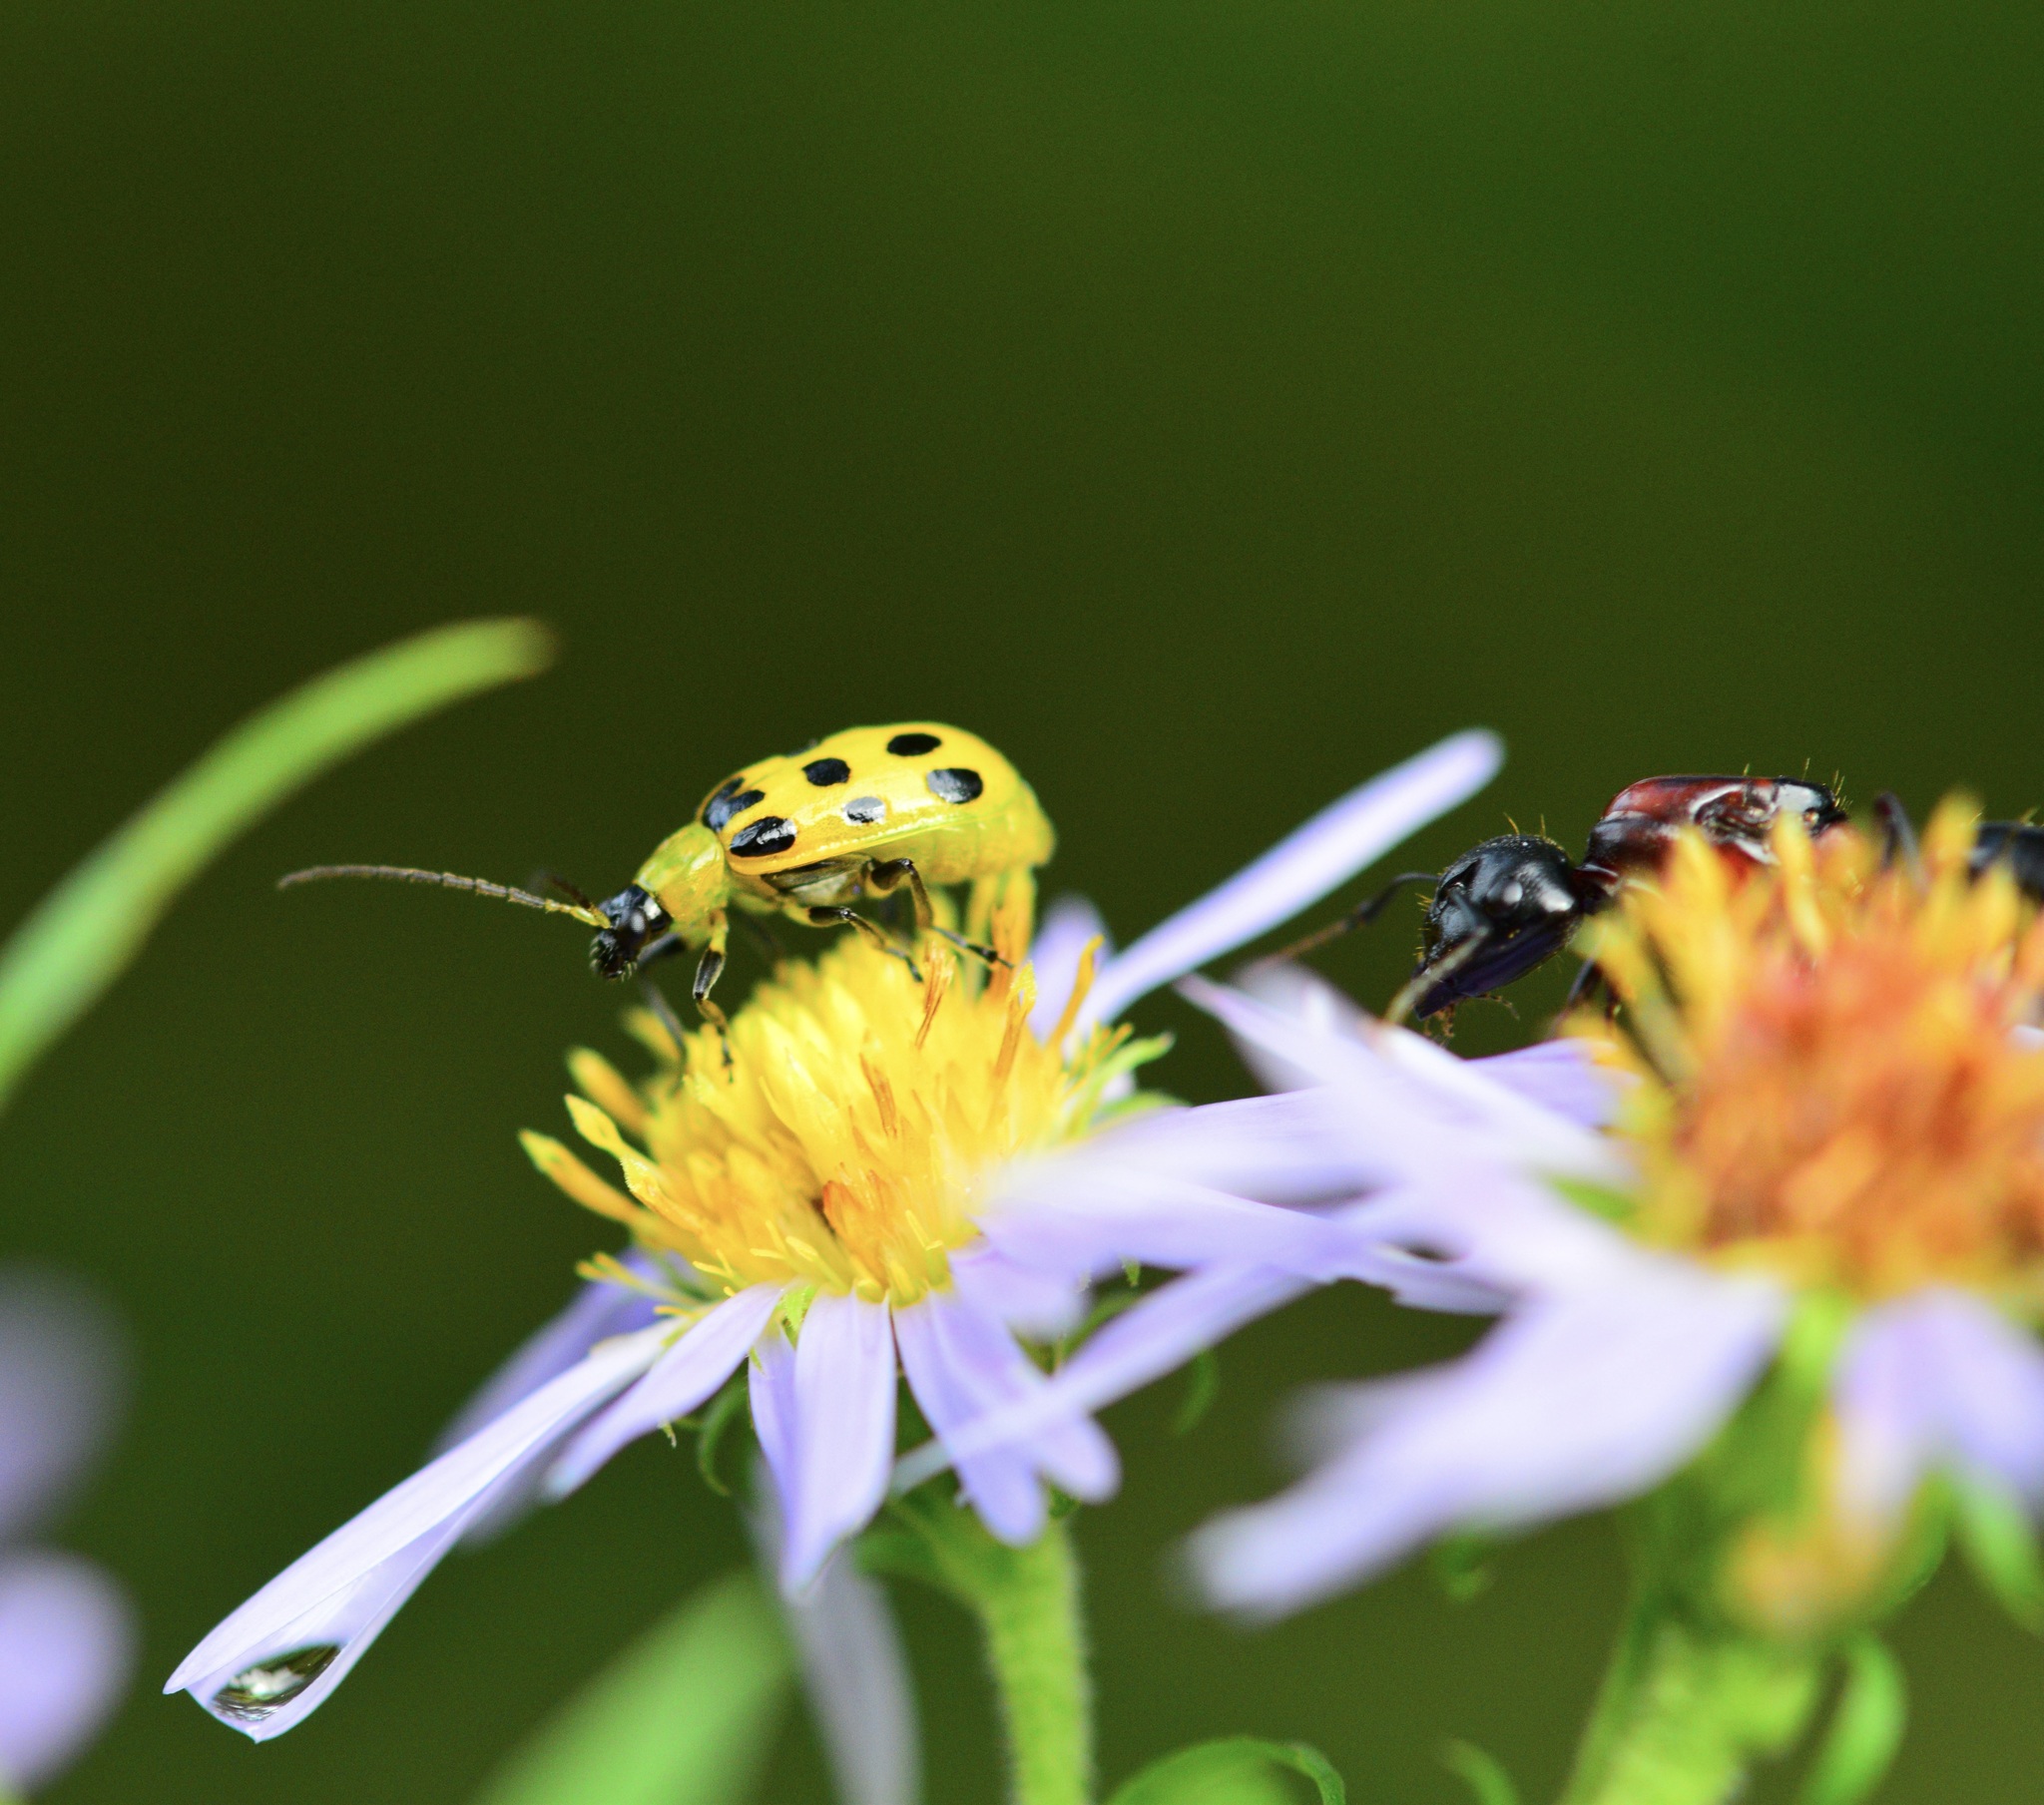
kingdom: Animalia
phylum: Arthropoda
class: Insecta
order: Coleoptera
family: Chrysomelidae
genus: Diabrotica
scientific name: Diabrotica undecimpunctata
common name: Spotted cucumber beetle
